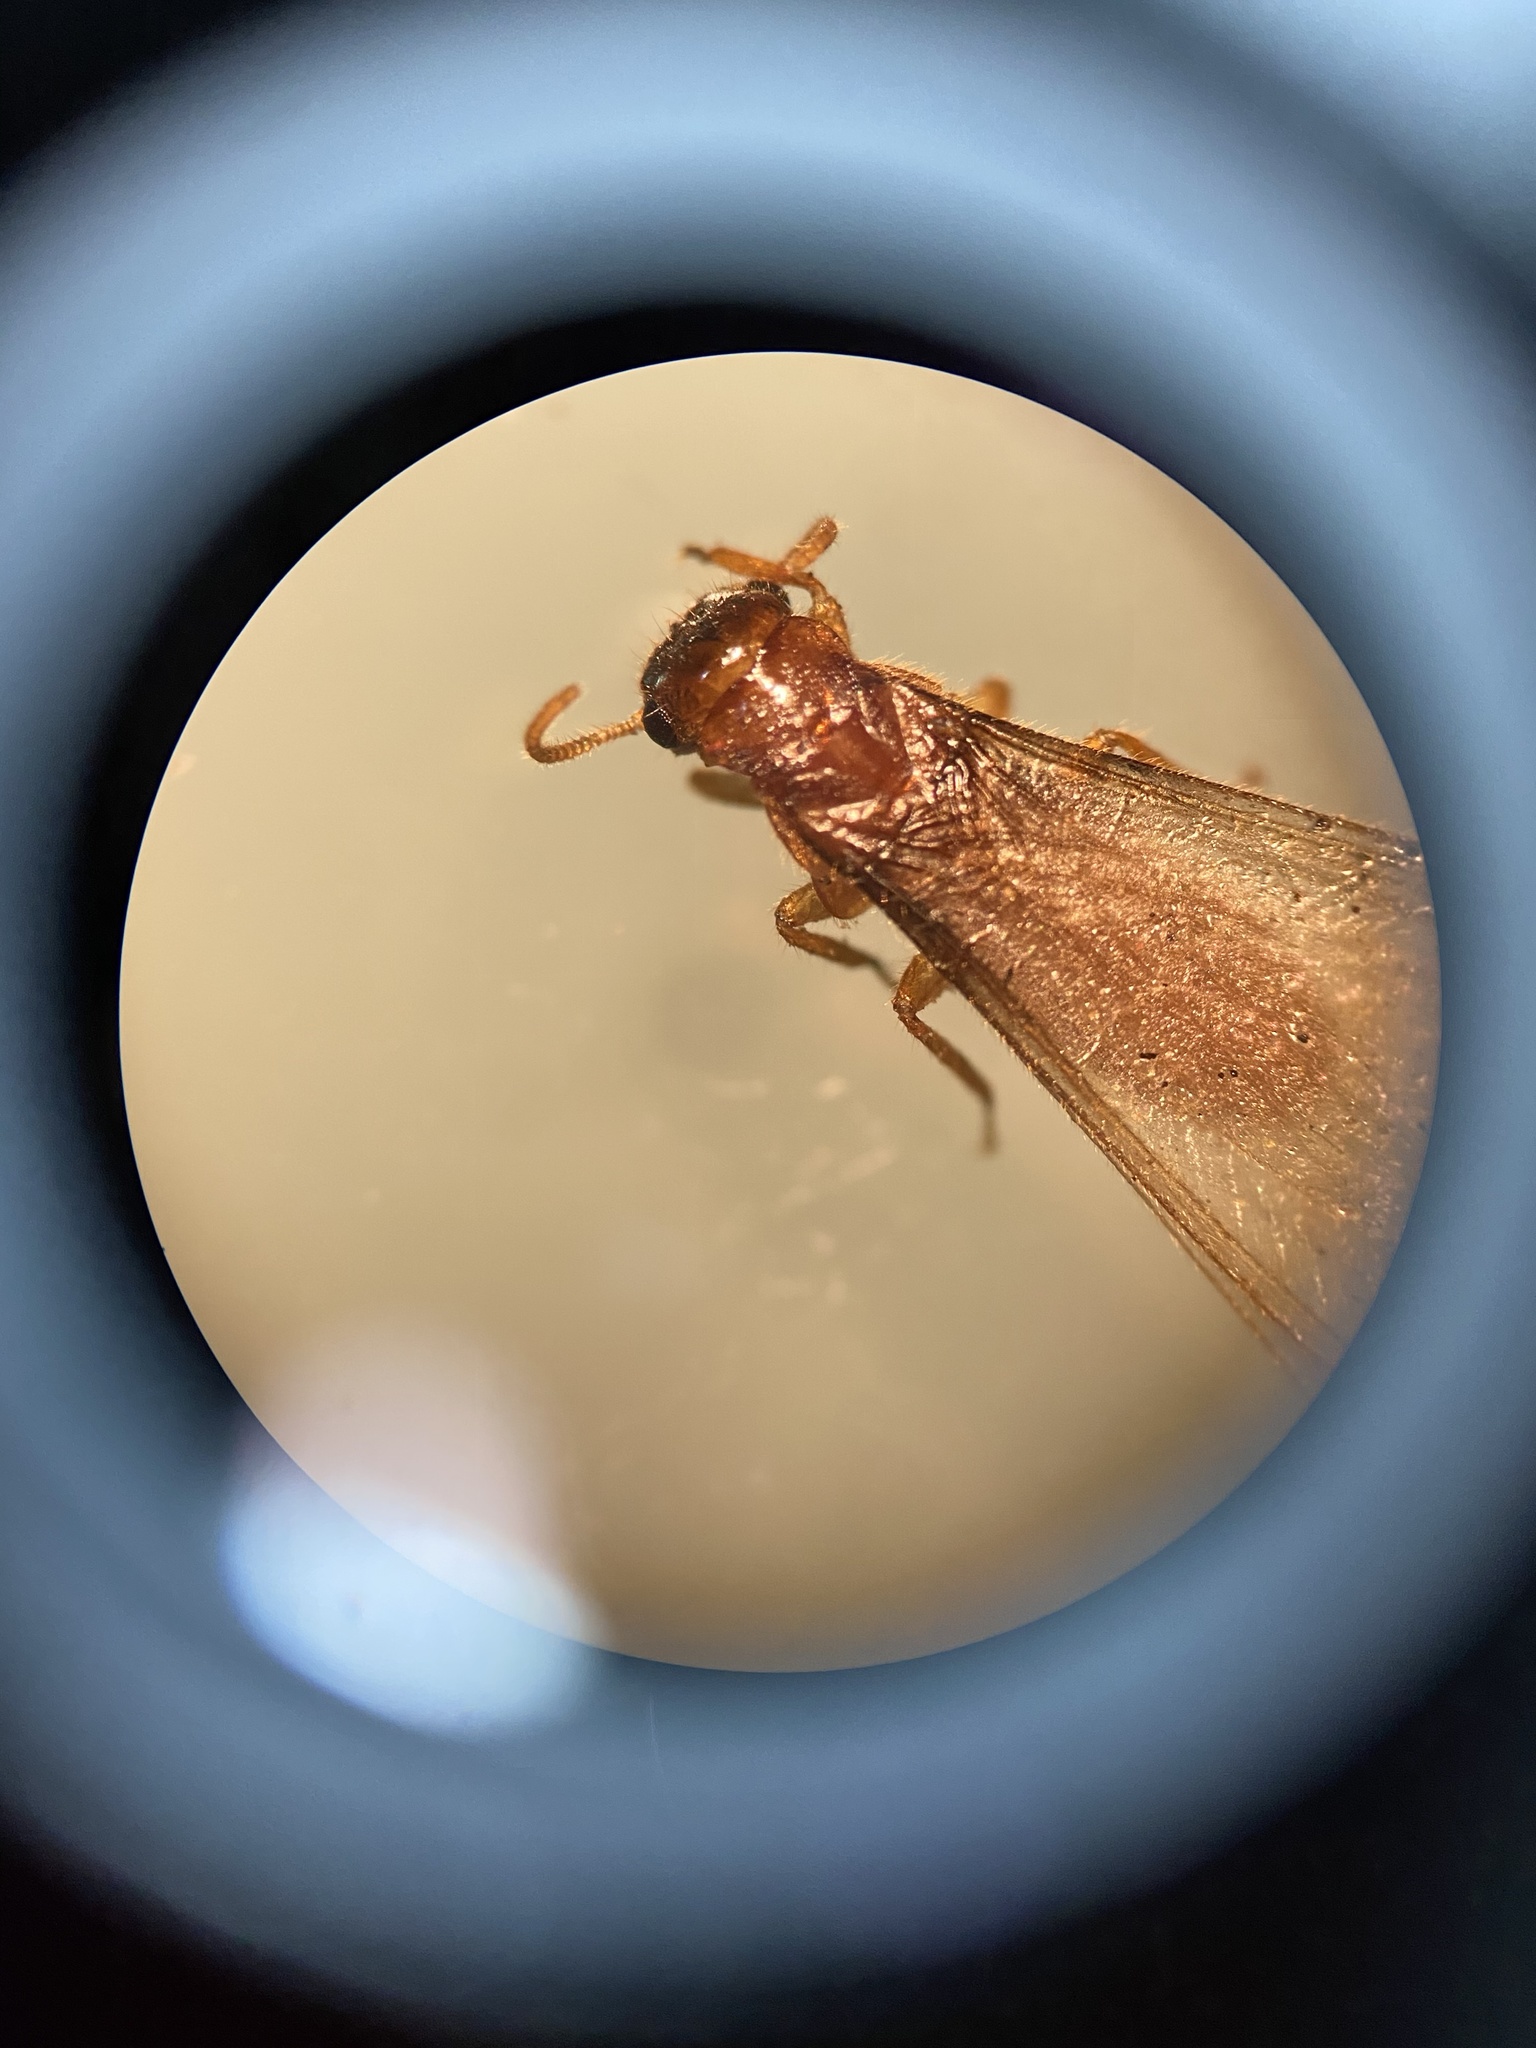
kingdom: Animalia
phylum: Arthropoda
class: Insecta
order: Blattodea
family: Rhinotermitidae
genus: Coptotermes
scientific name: Coptotermes formosanus
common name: Formosan termite
